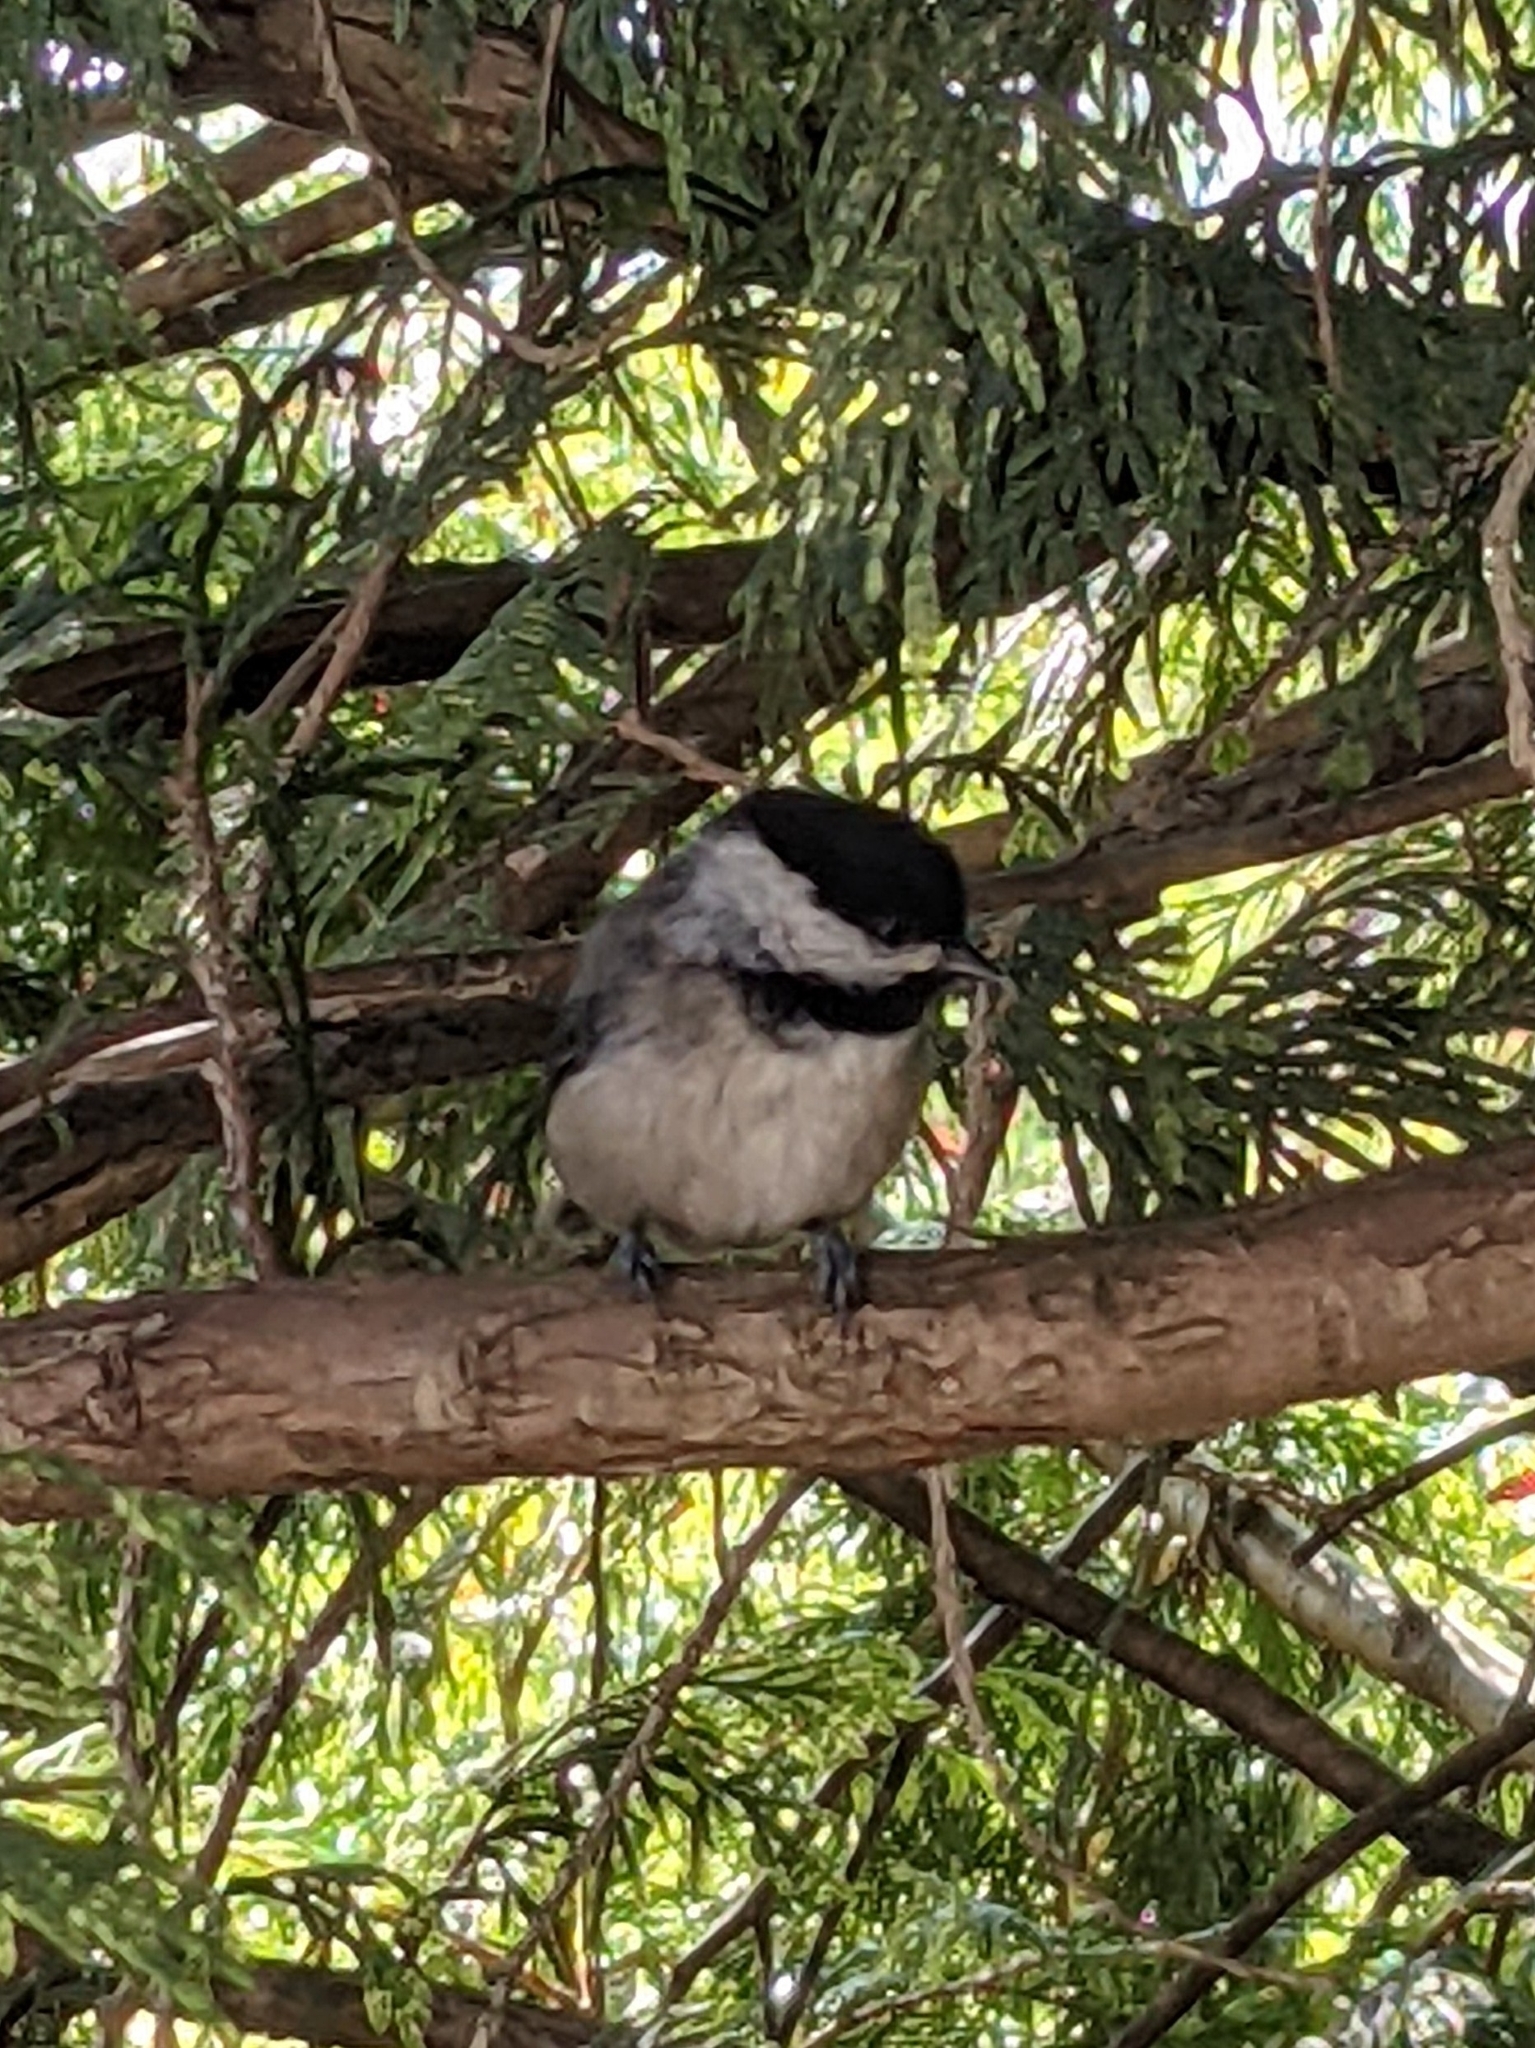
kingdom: Animalia
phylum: Chordata
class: Aves
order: Passeriformes
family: Paridae
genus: Poecile
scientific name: Poecile atricapillus
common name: Black-capped chickadee
